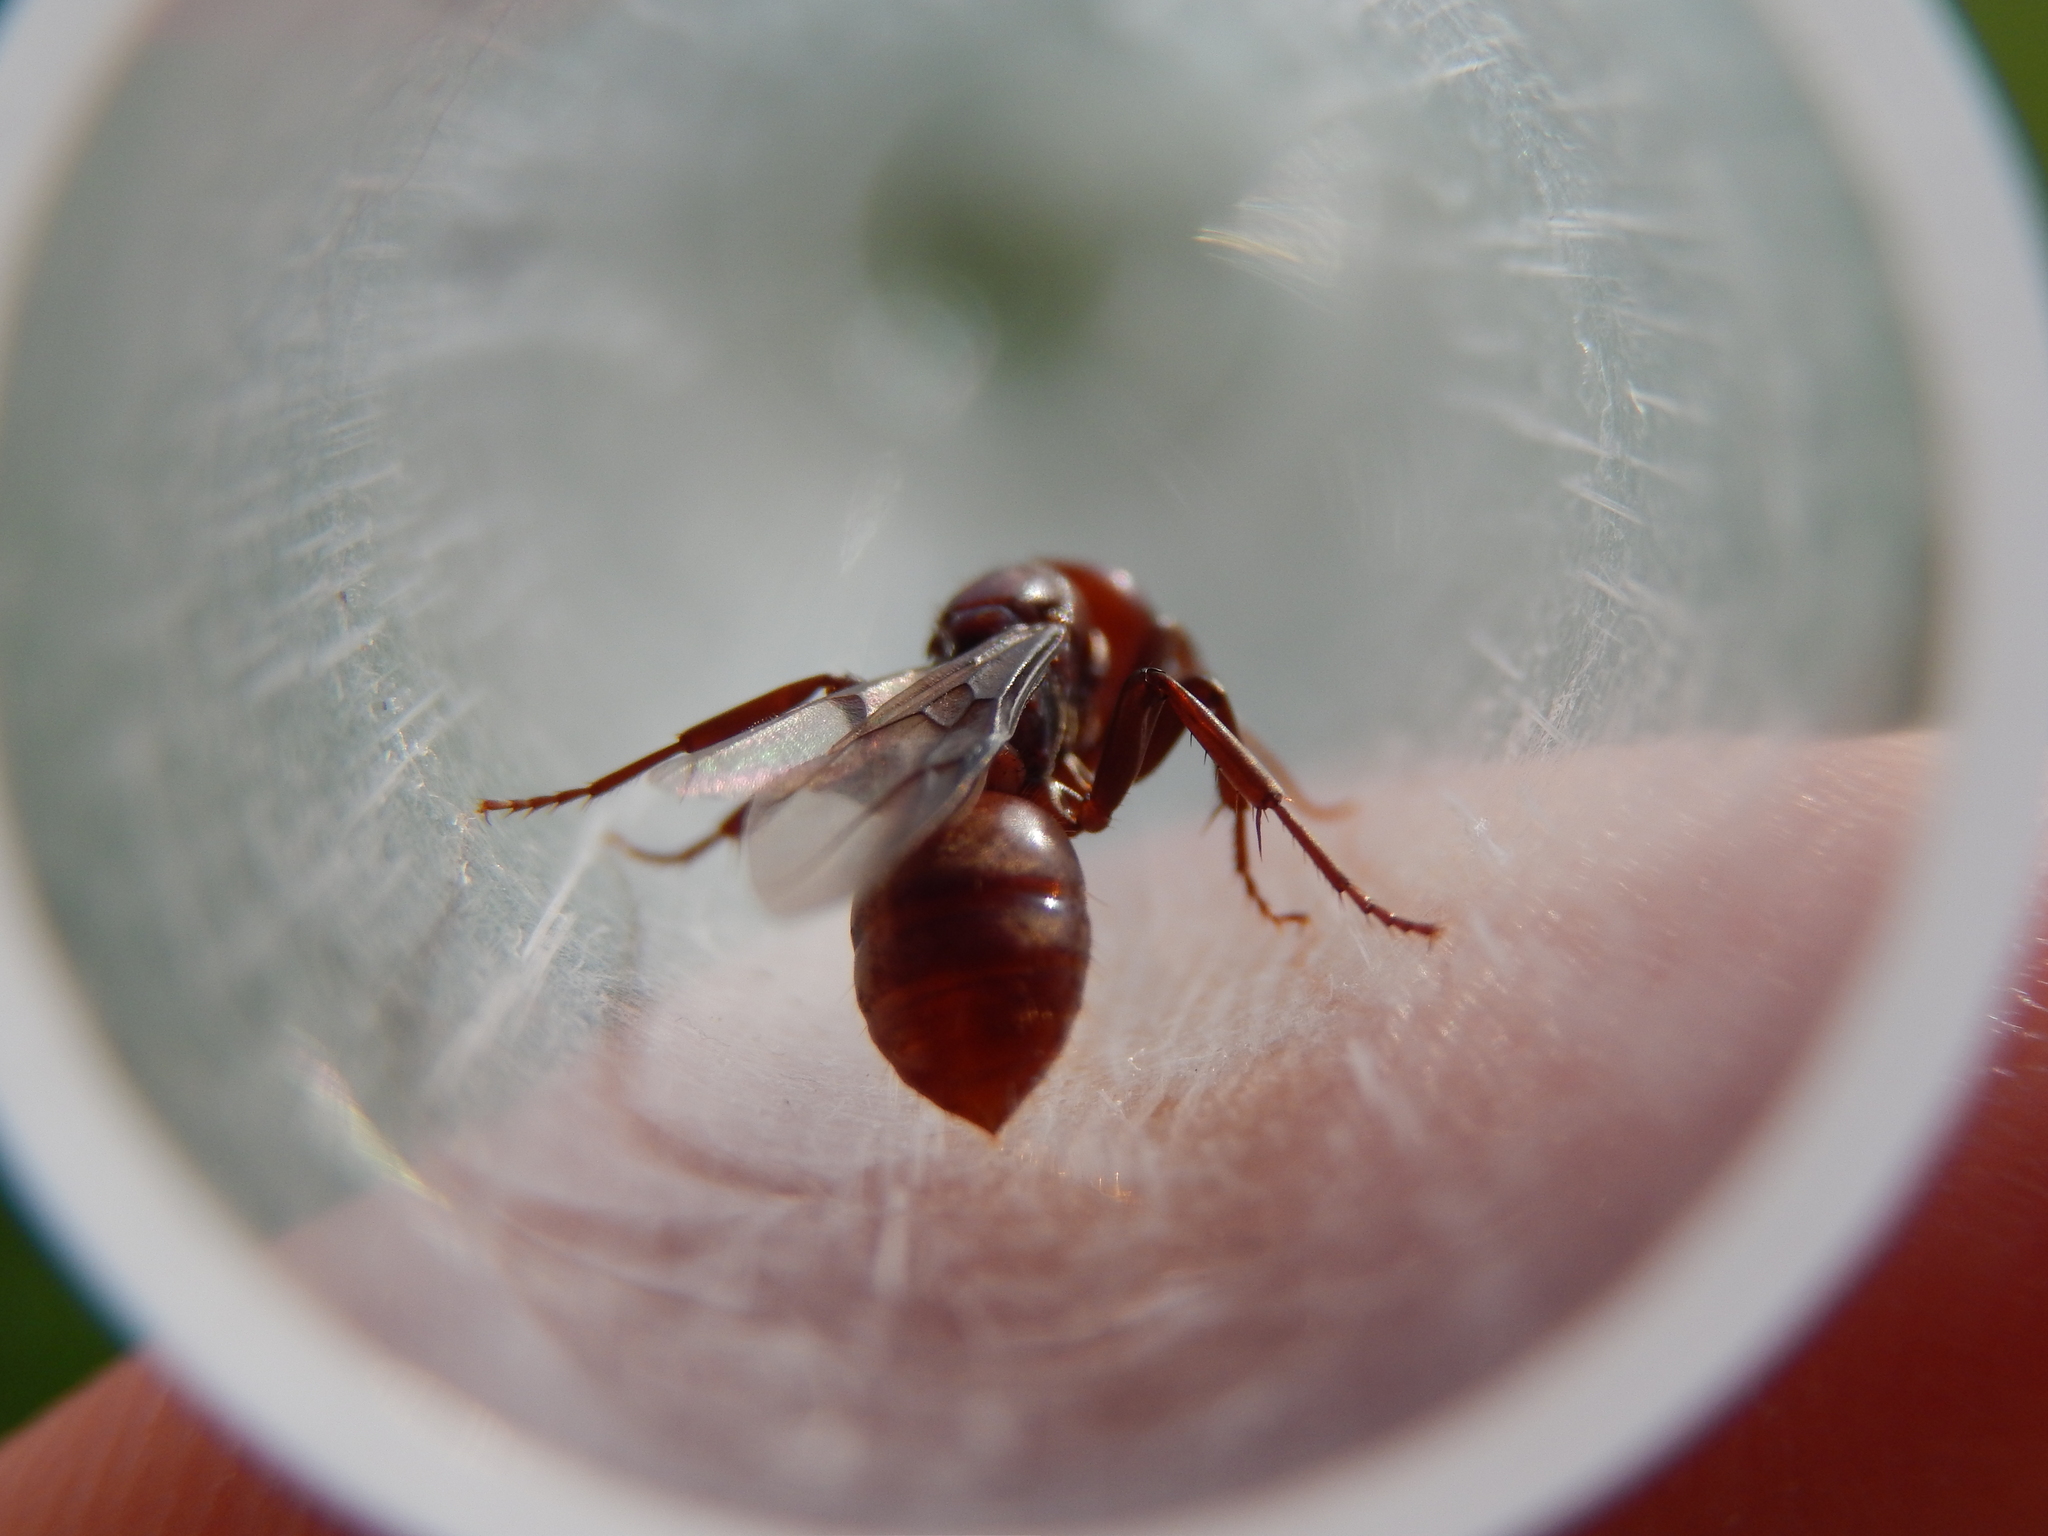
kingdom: Animalia
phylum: Arthropoda
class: Insecta
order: Hymenoptera
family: Formicidae
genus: Polyergus
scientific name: Polyergus rufescens
